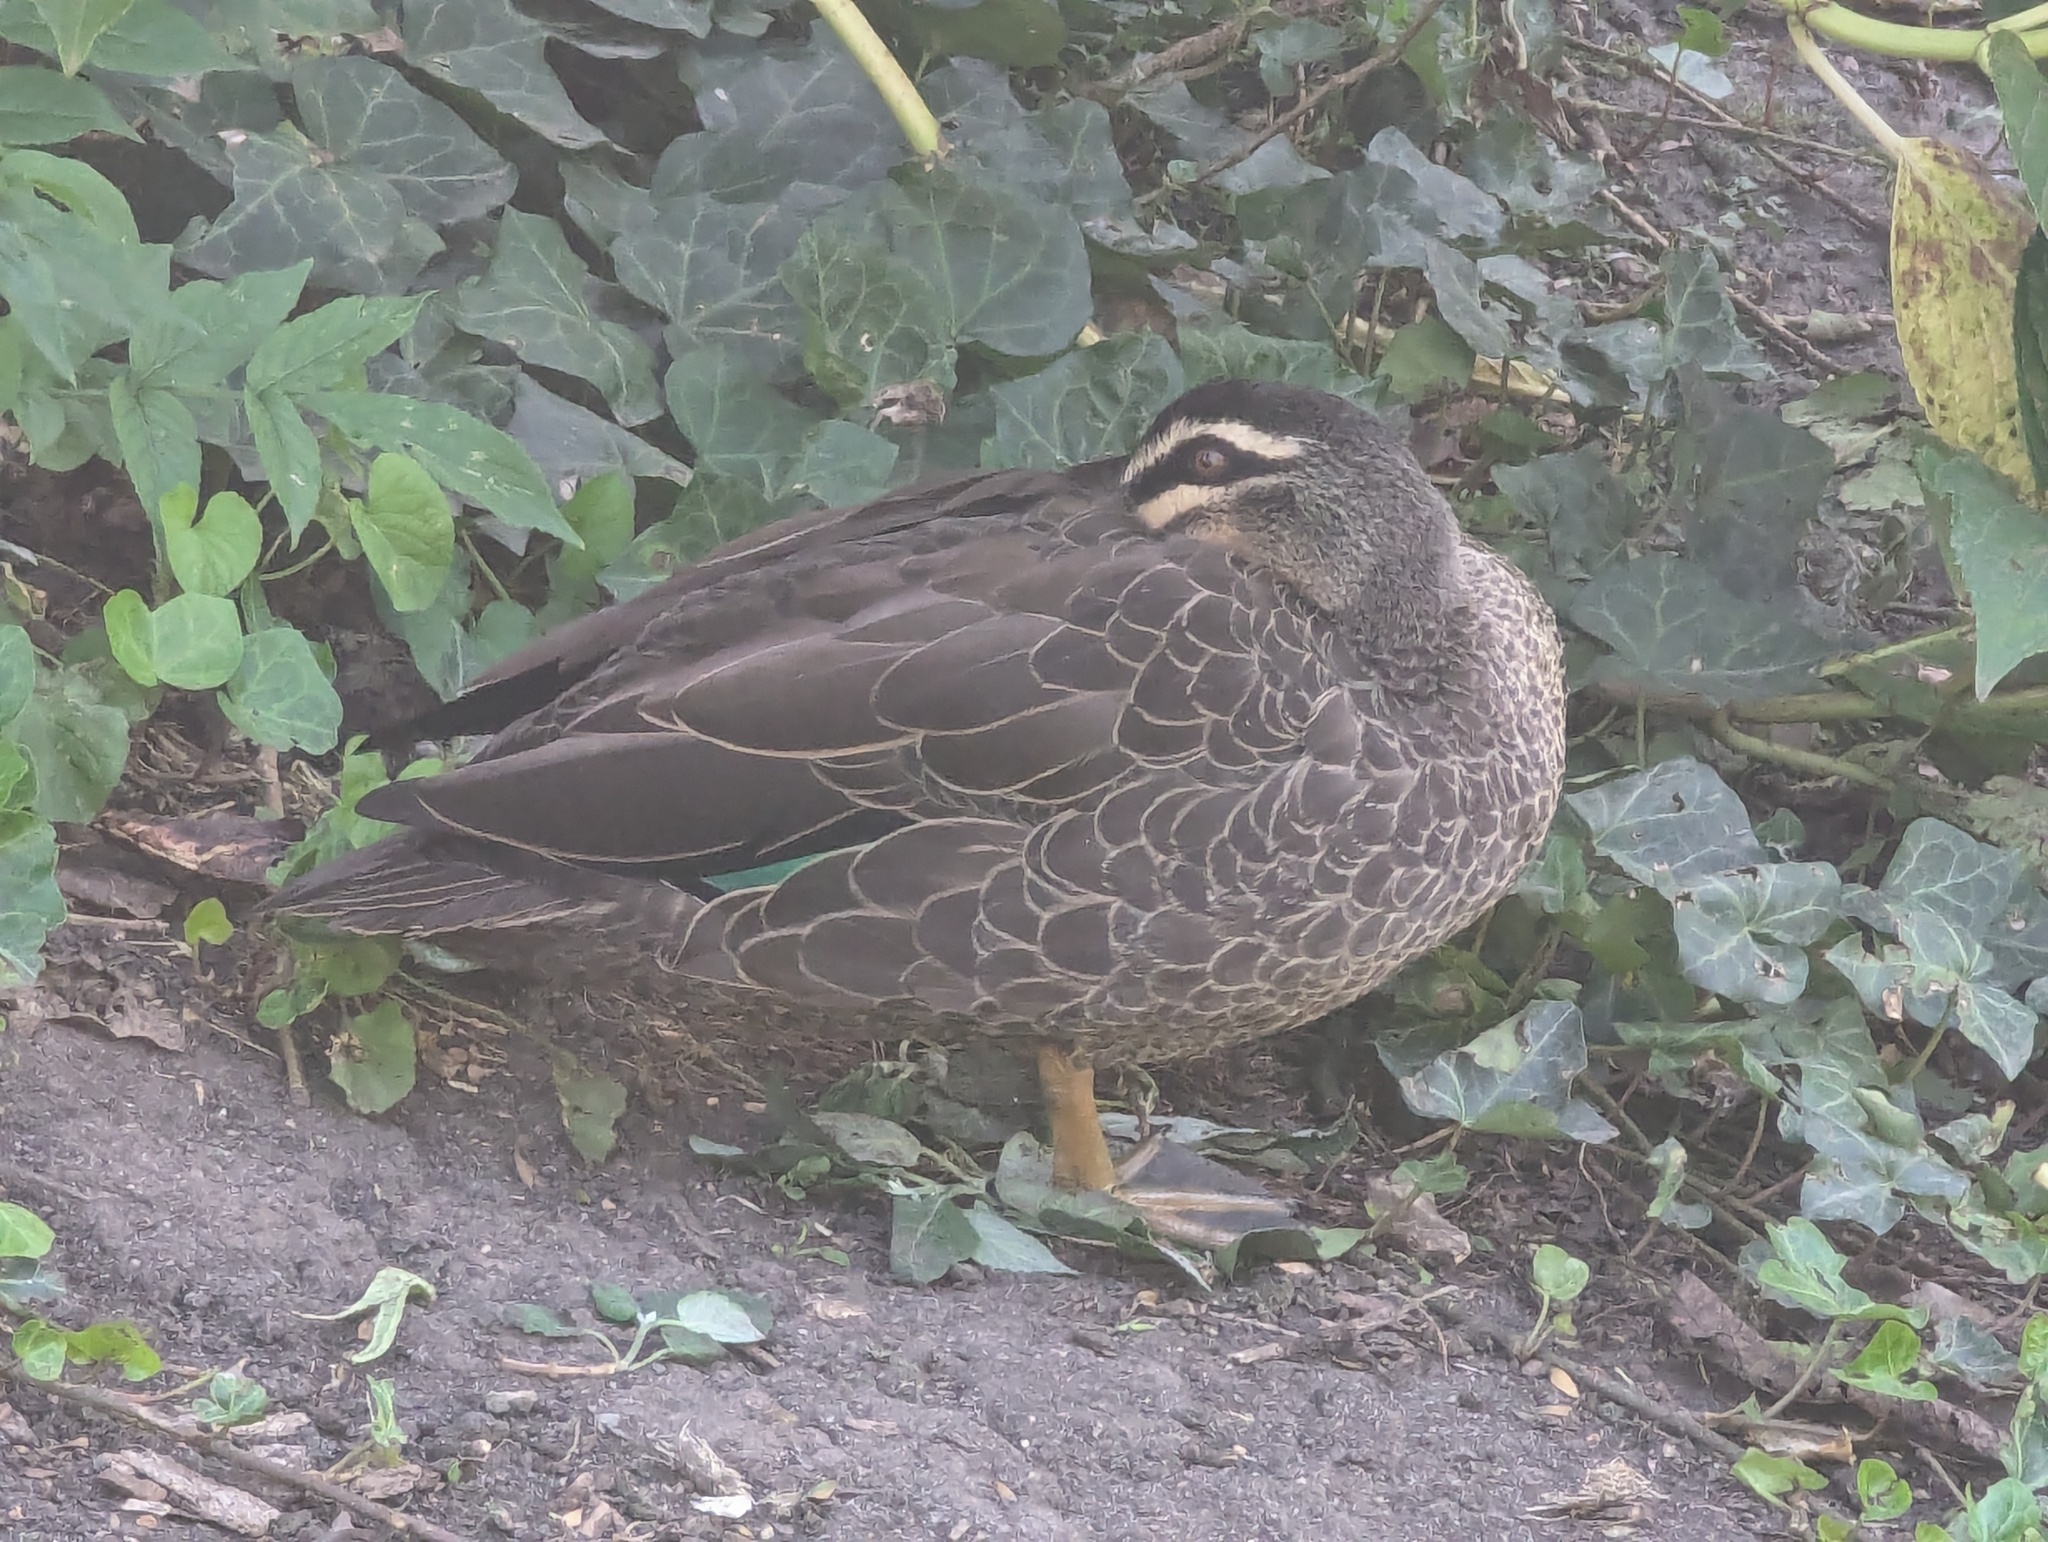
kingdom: Animalia
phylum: Chordata
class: Aves
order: Anseriformes
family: Anatidae
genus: Anas
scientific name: Anas superciliosa
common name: Pacific black duck
